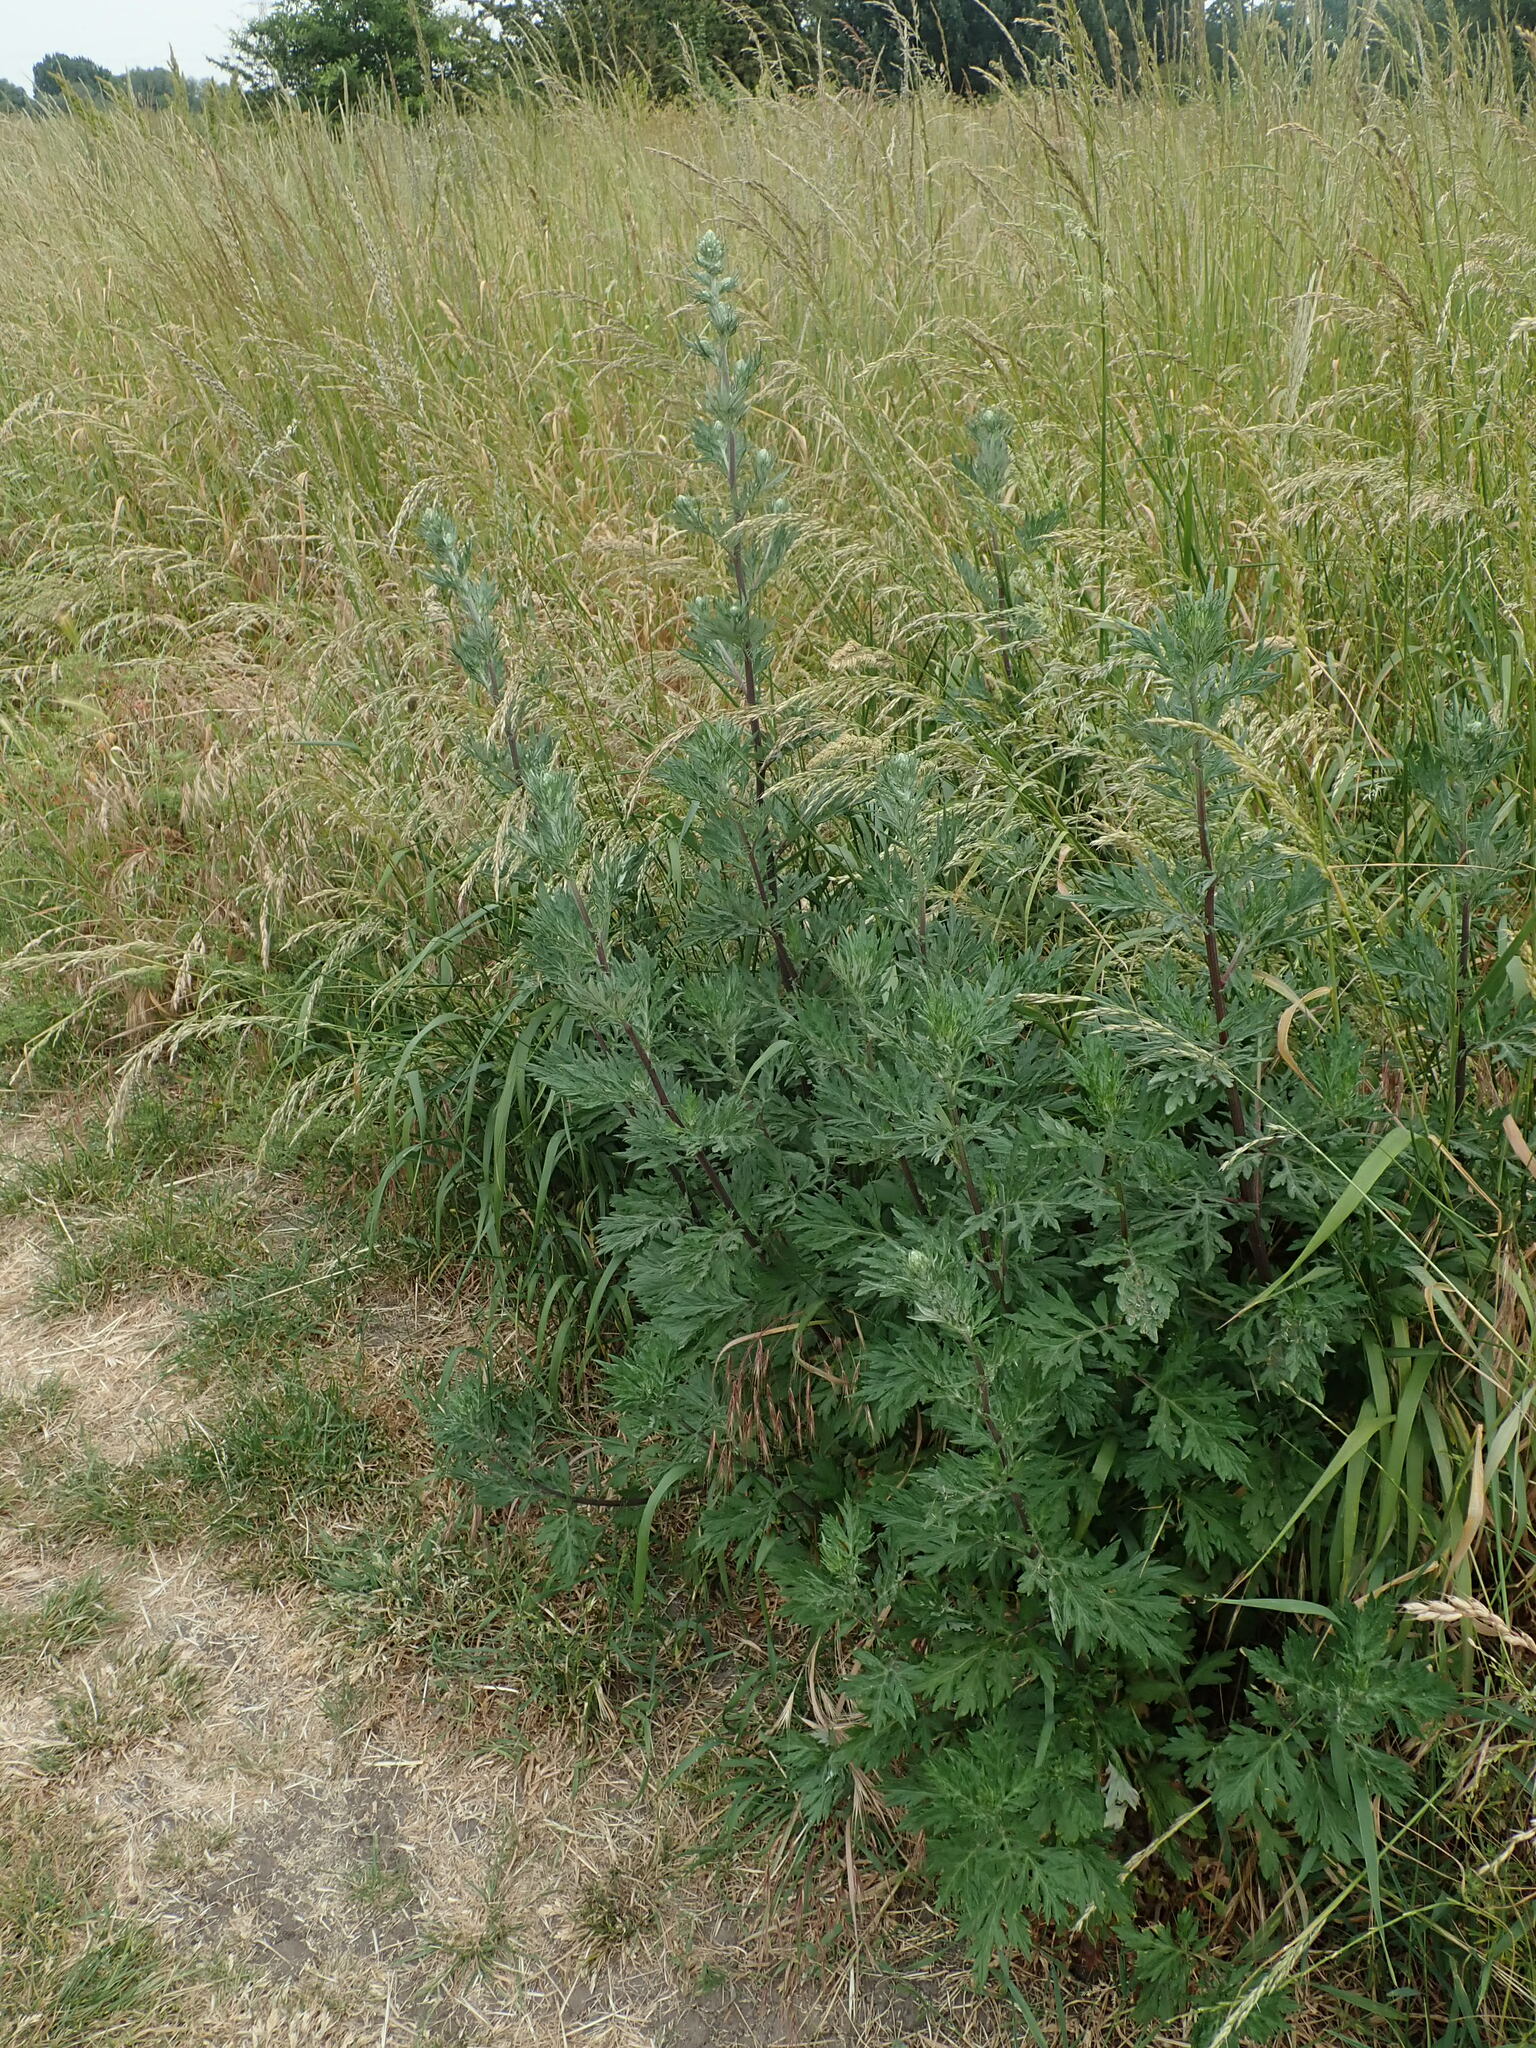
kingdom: Plantae
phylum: Tracheophyta
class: Magnoliopsida
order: Asterales
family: Asteraceae
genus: Artemisia
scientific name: Artemisia vulgaris
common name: Mugwort
